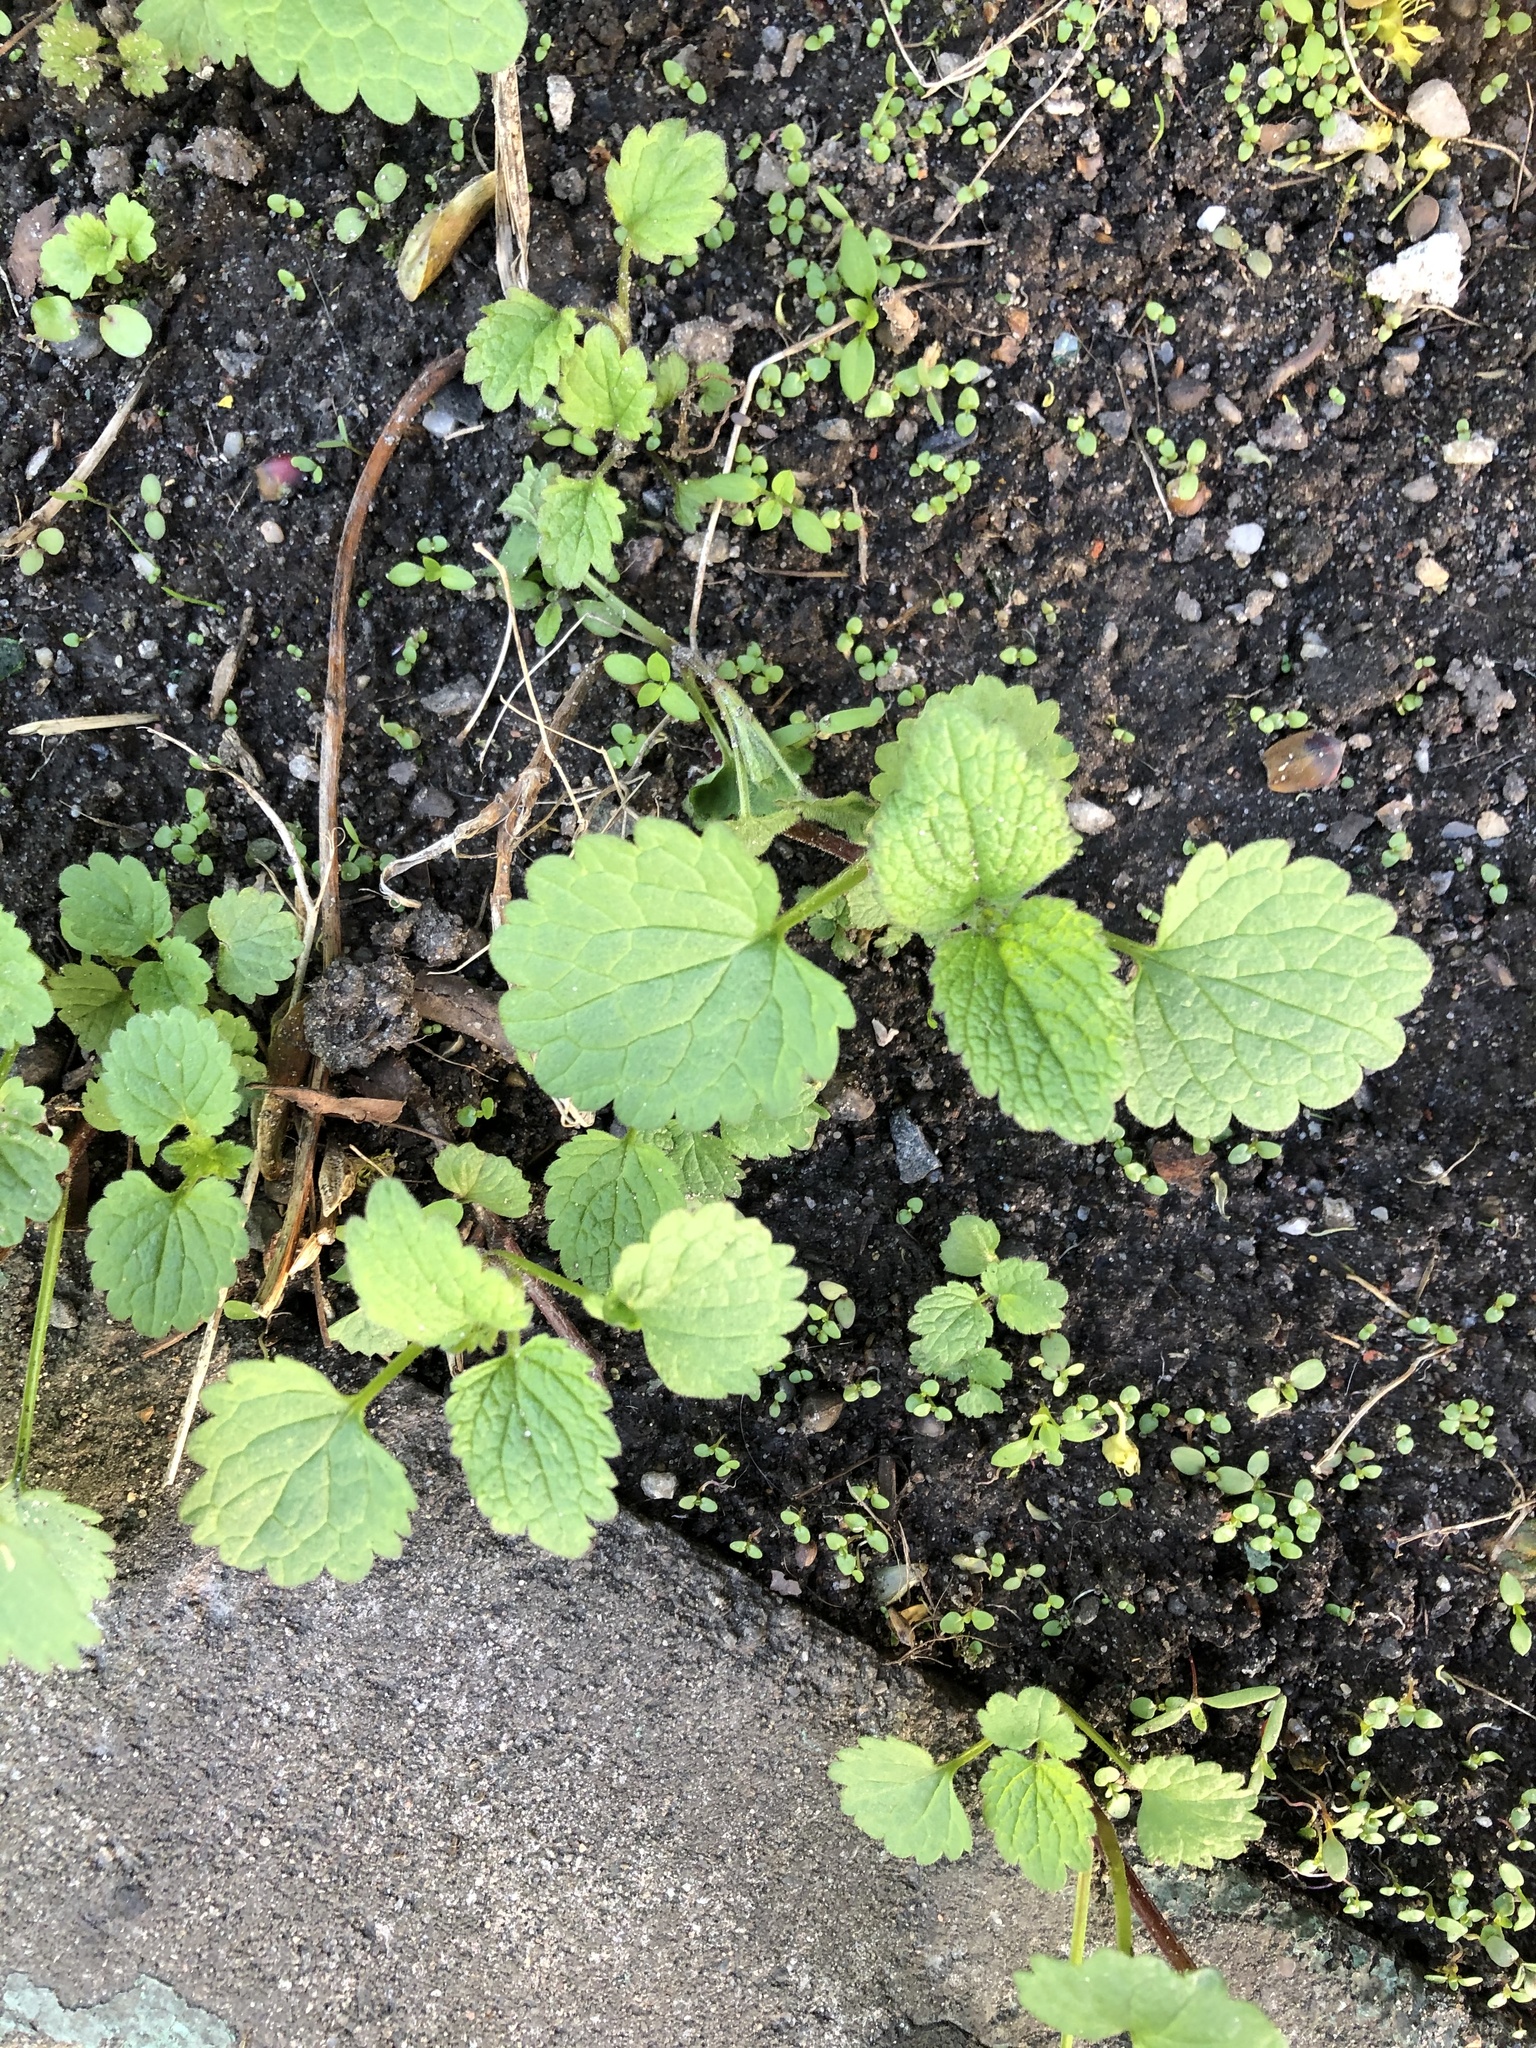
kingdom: Plantae
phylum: Tracheophyta
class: Magnoliopsida
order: Lamiales
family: Lamiaceae
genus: Lamium
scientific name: Lamium
